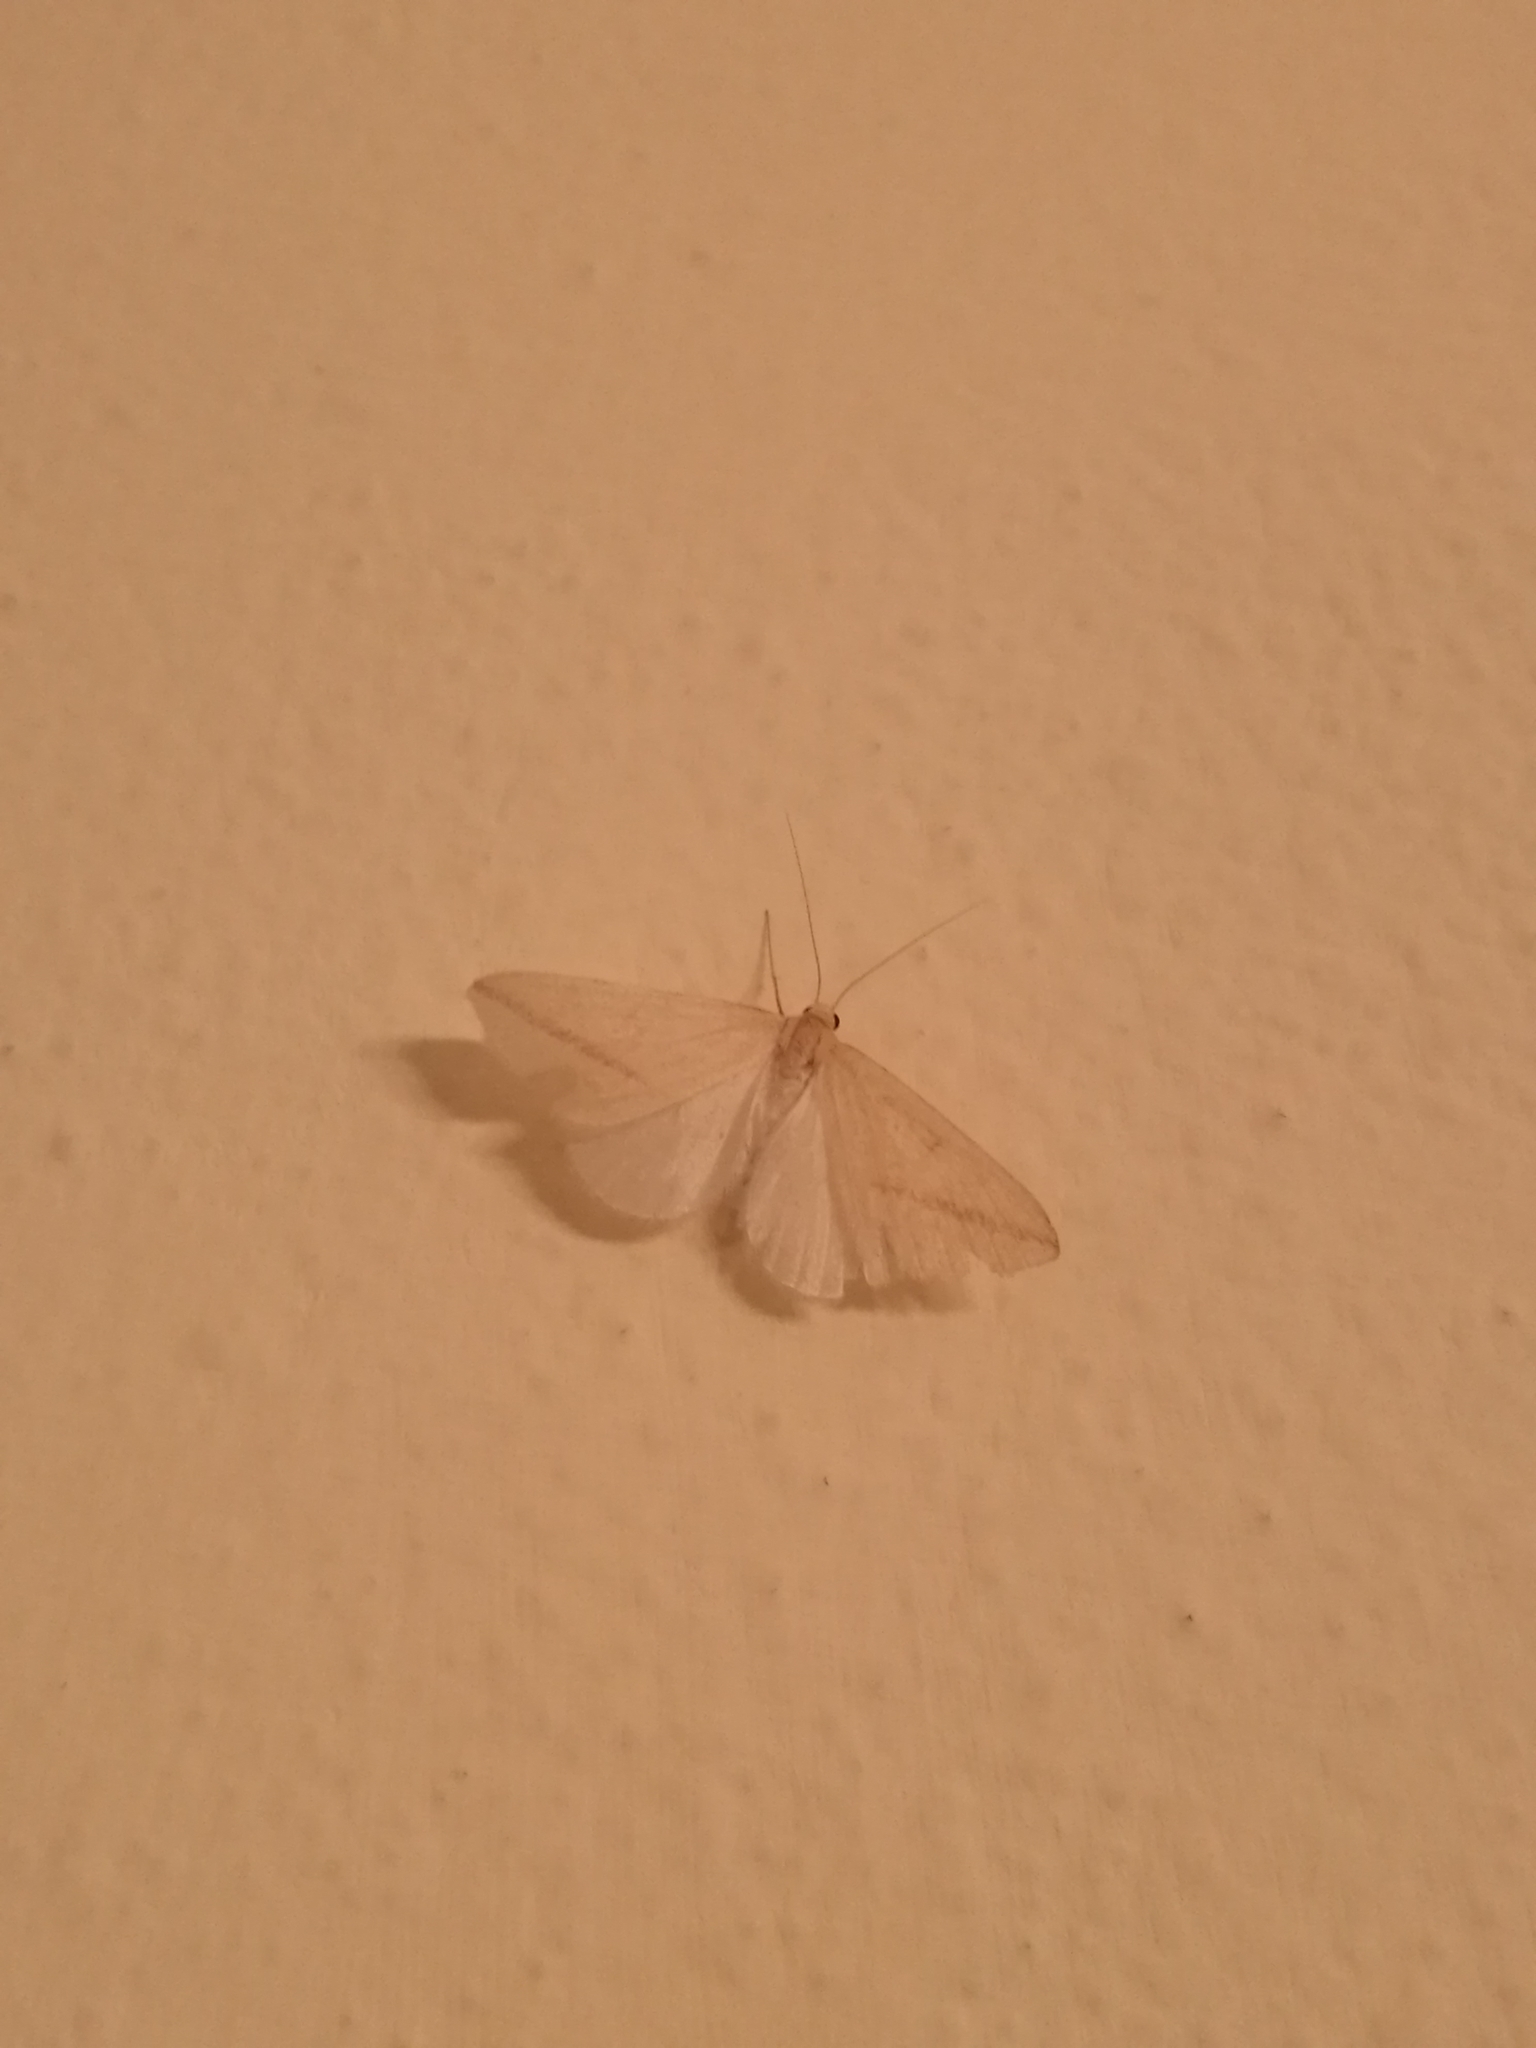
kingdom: Animalia
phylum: Arthropoda
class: Insecta
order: Lepidoptera
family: Geometridae
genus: Rhodometra
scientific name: Rhodometra sacraria
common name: Vestal
